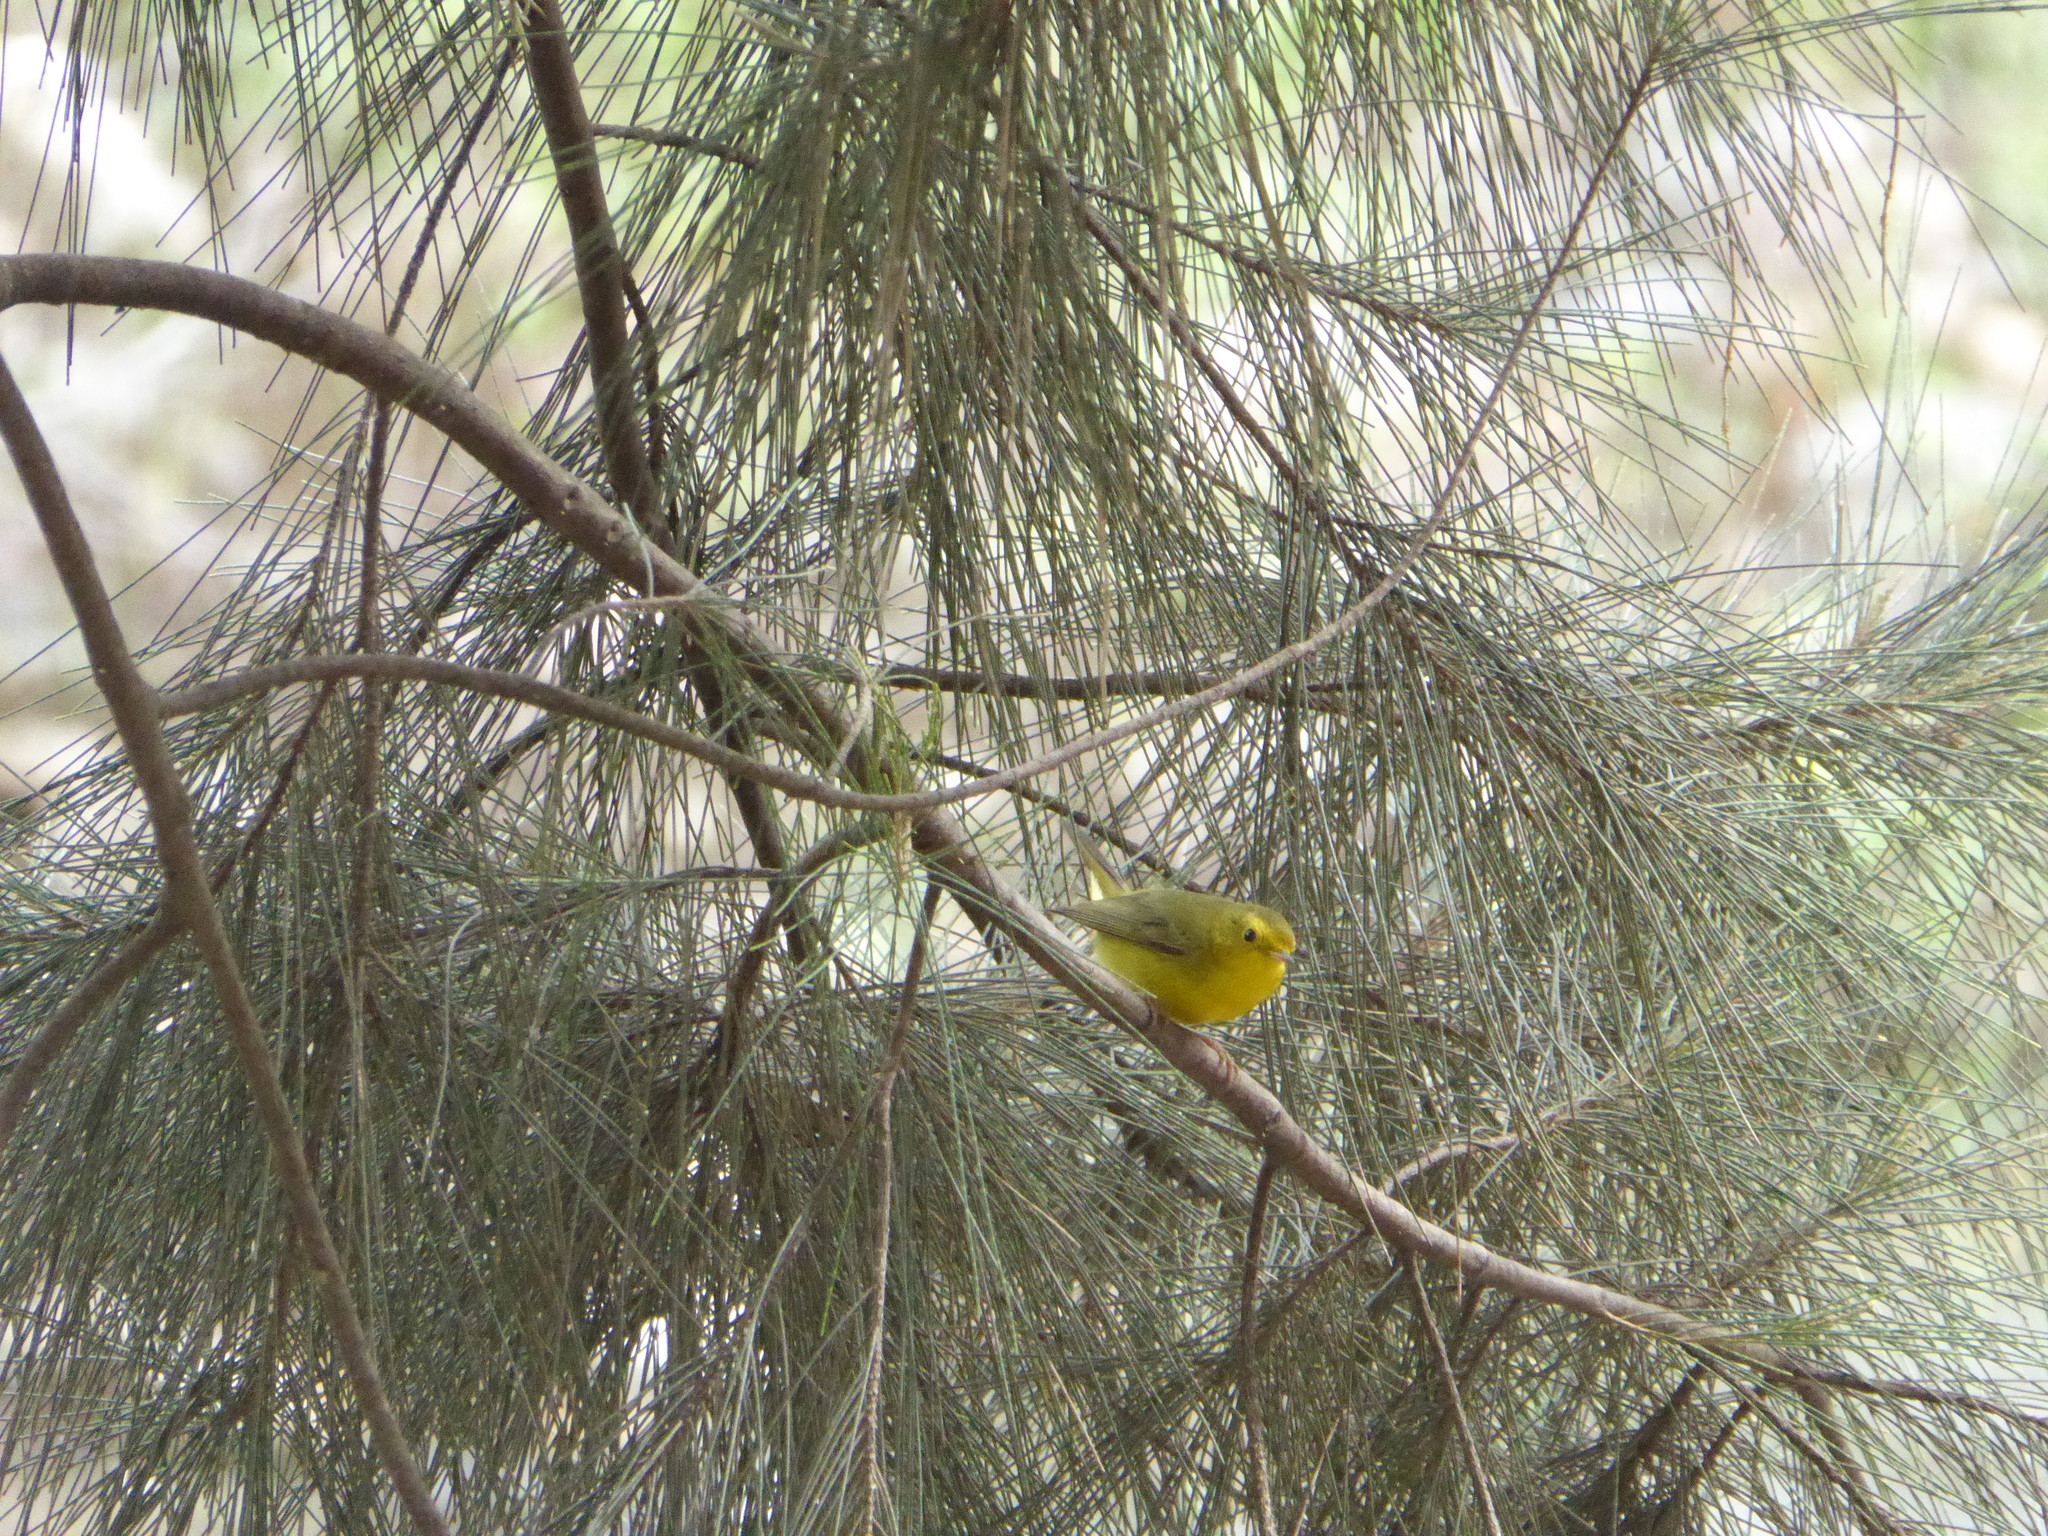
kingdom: Animalia
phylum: Chordata
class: Aves
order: Passeriformes
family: Parulidae
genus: Cardellina
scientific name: Cardellina pusilla
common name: Wilson's warbler
